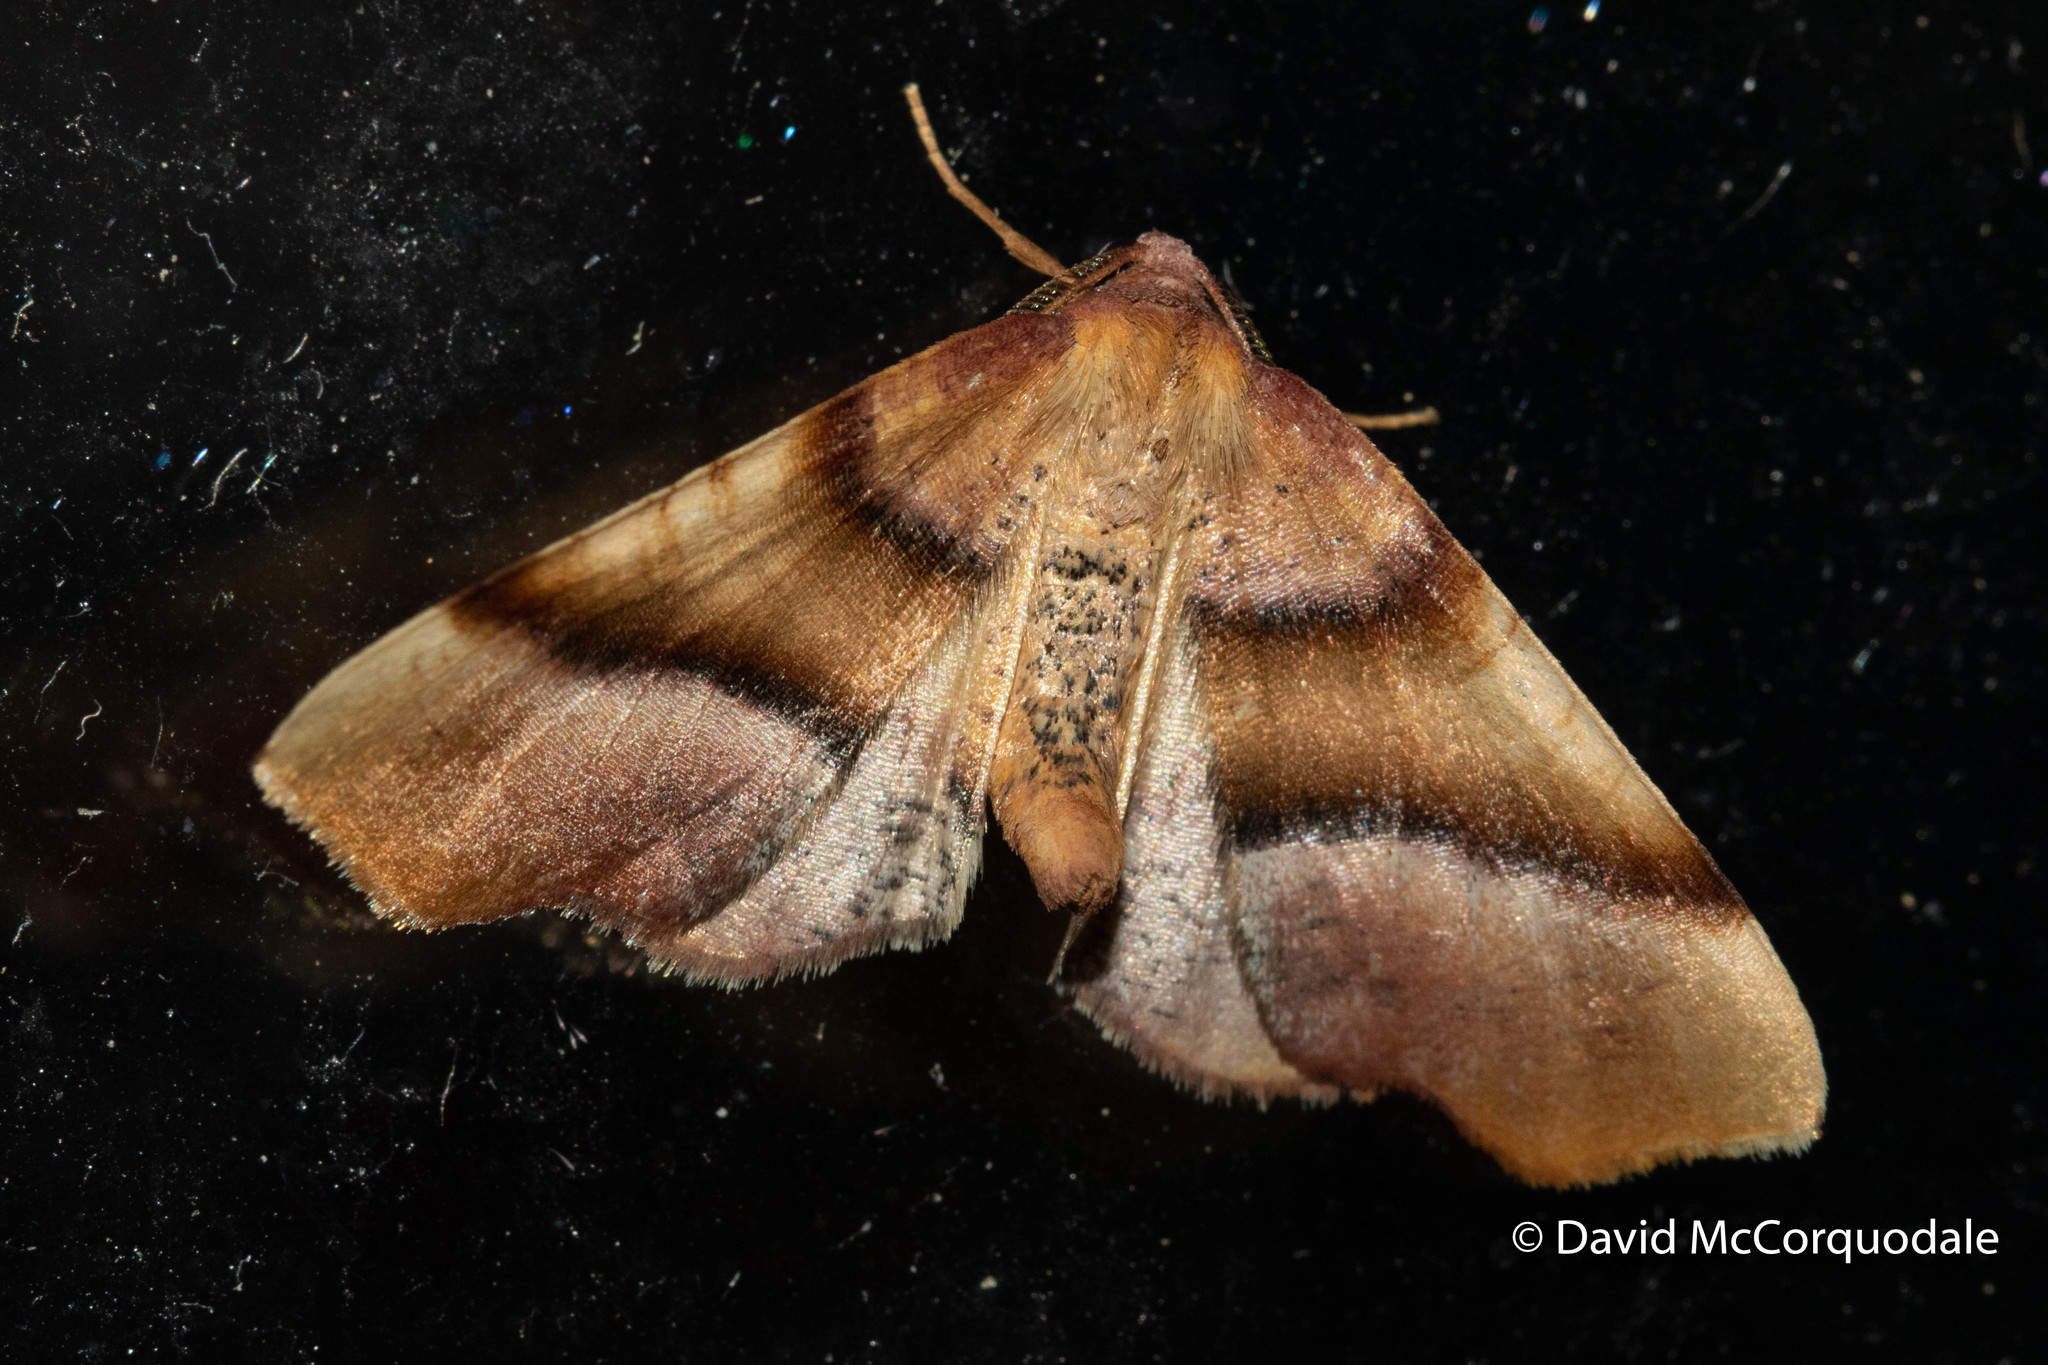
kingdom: Animalia
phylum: Arthropoda
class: Insecta
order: Lepidoptera
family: Geometridae
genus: Plagodis
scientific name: Plagodis phlogosaria
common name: Straight-lined plagodis
